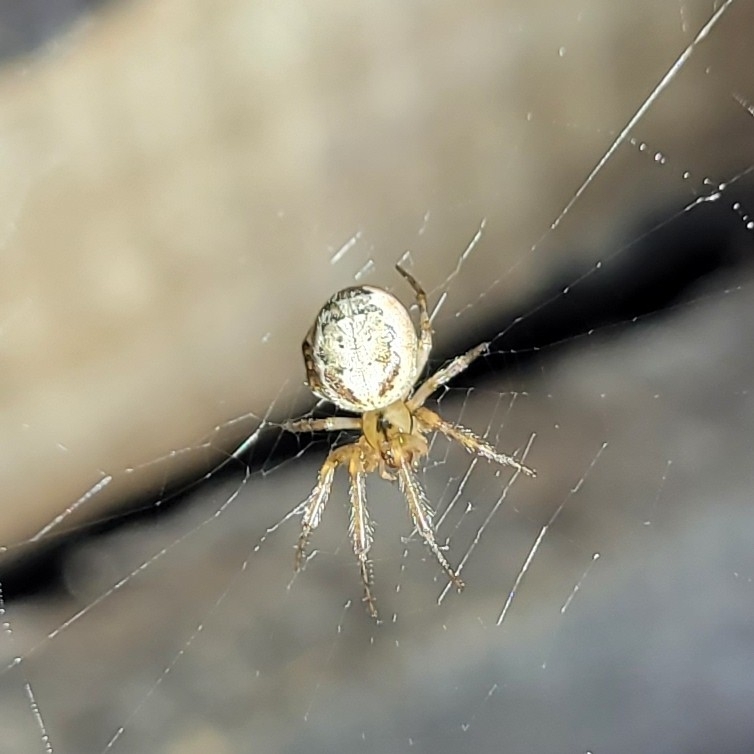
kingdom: Animalia
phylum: Arthropoda
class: Arachnida
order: Araneae
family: Araneidae
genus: Zygiella
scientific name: Zygiella x-notata
